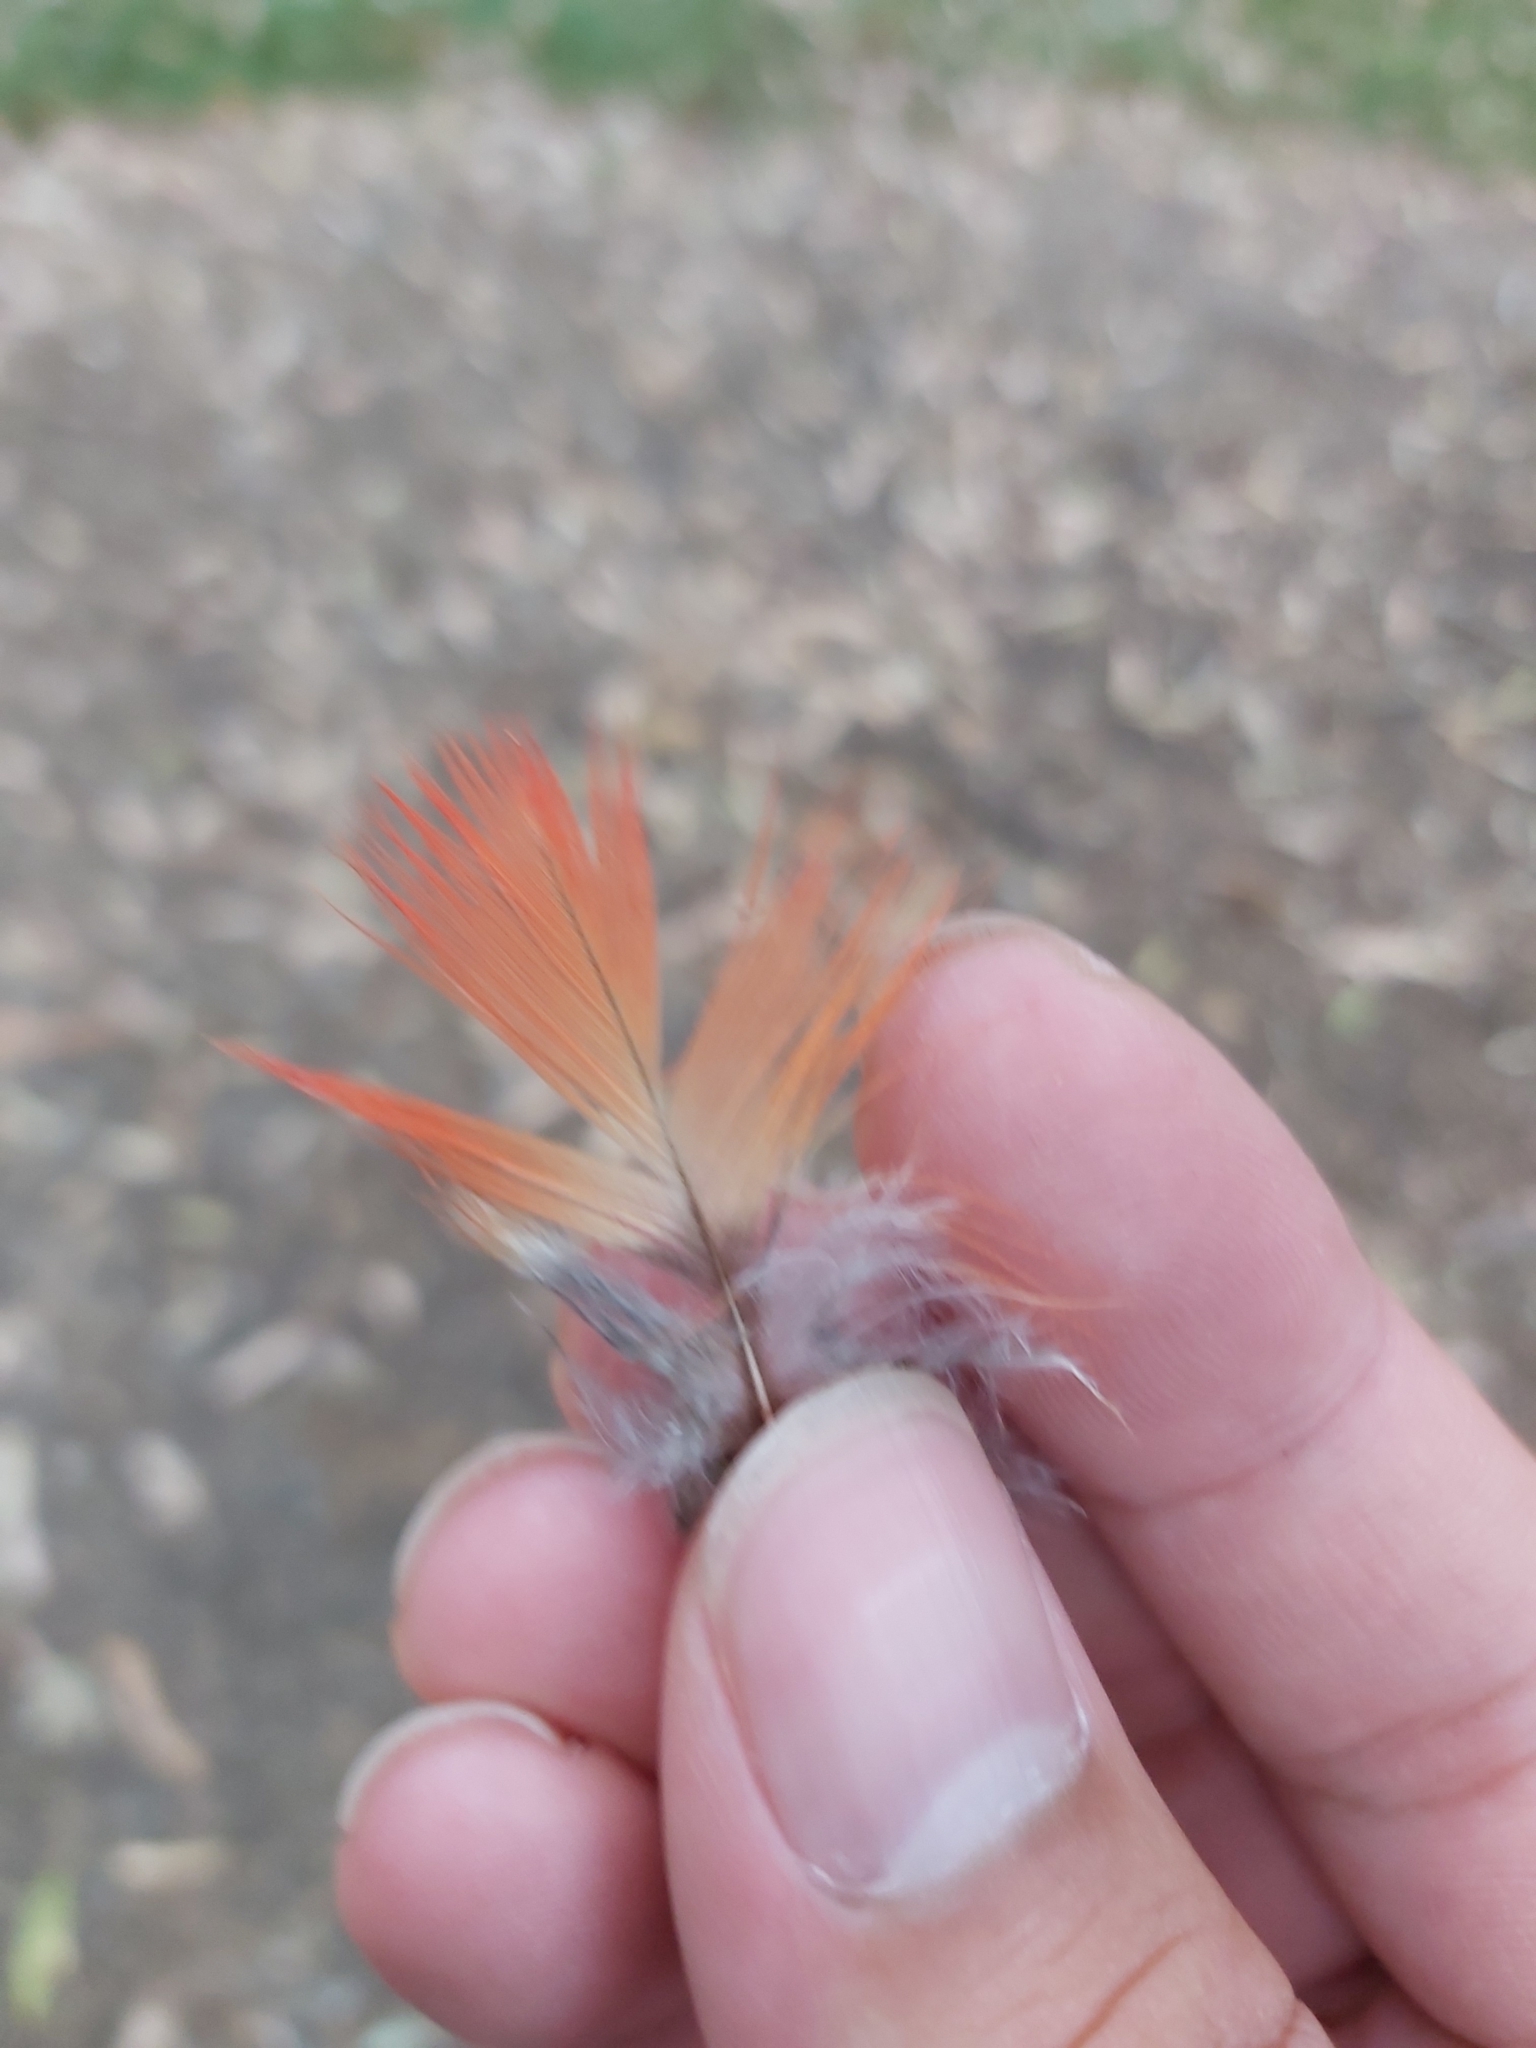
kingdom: Animalia
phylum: Chordata
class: Aves
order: Psittaciformes
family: Psittacidae
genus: Trichoglossus
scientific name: Trichoglossus haematodus
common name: Coconut lorikeet
